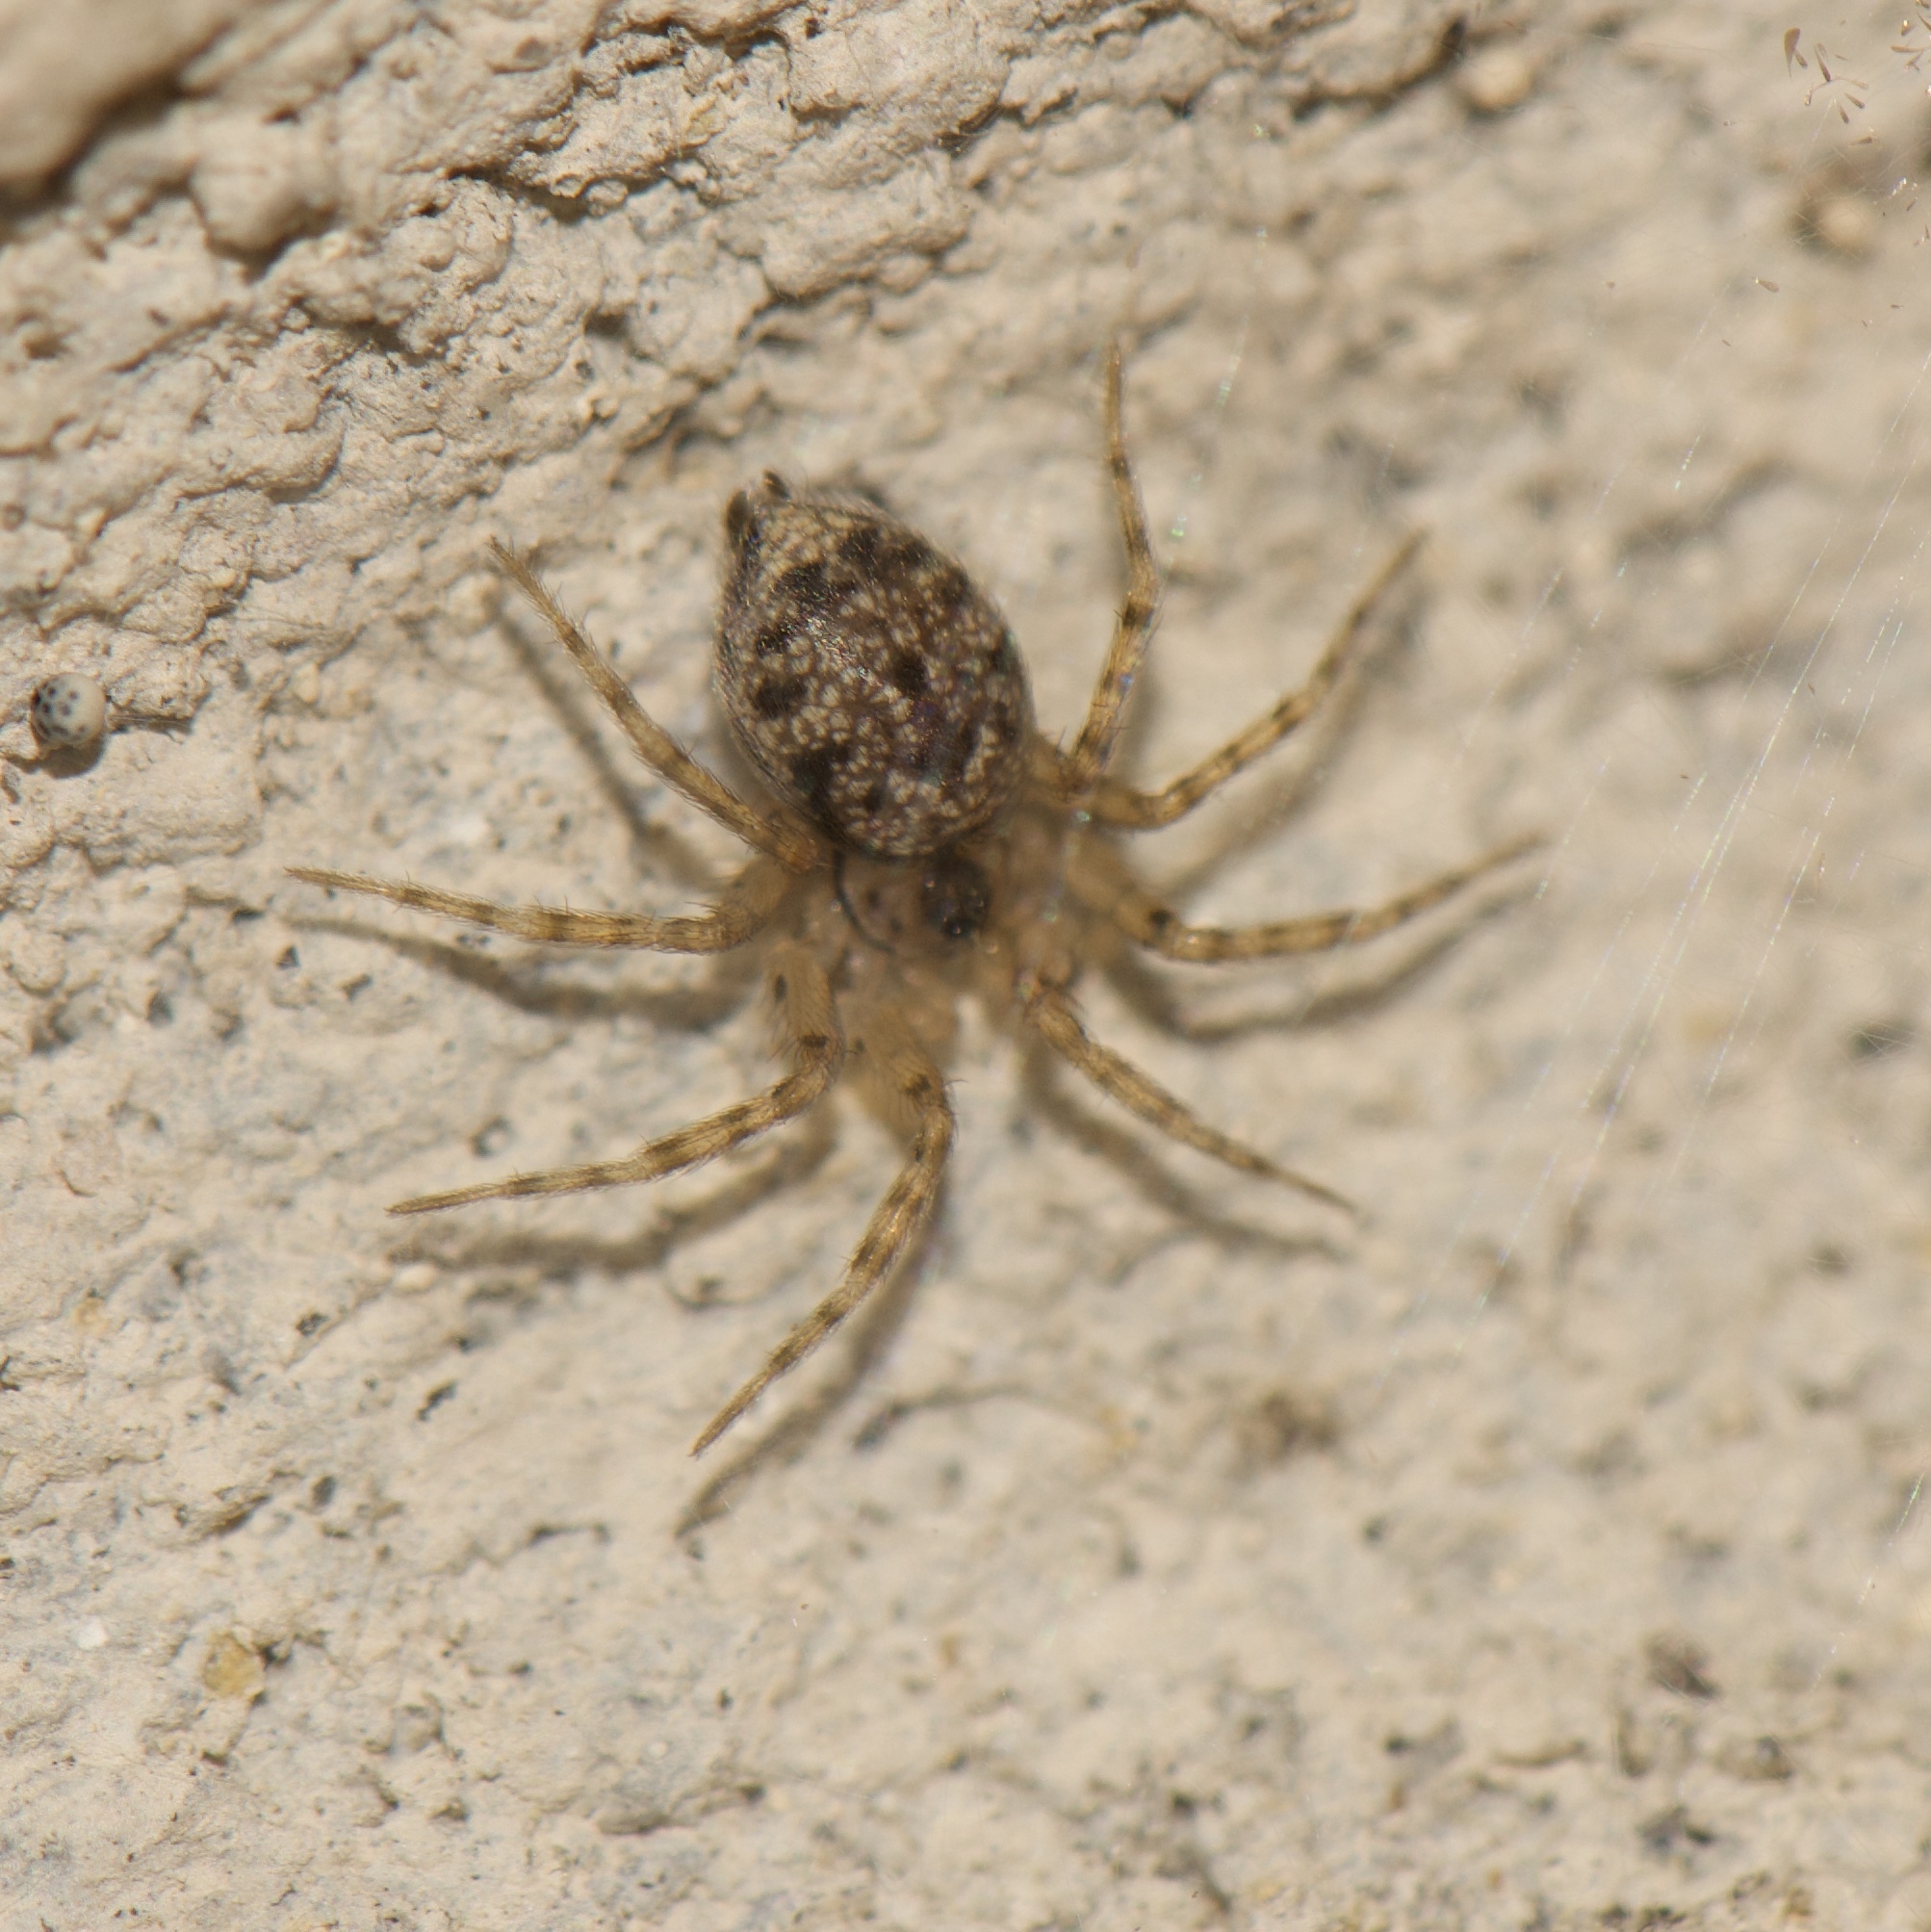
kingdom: Animalia
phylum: Arthropoda
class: Arachnida
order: Araneae
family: Oecobiidae
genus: Oecobius
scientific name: Oecobius navus
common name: Flatmesh weaver
